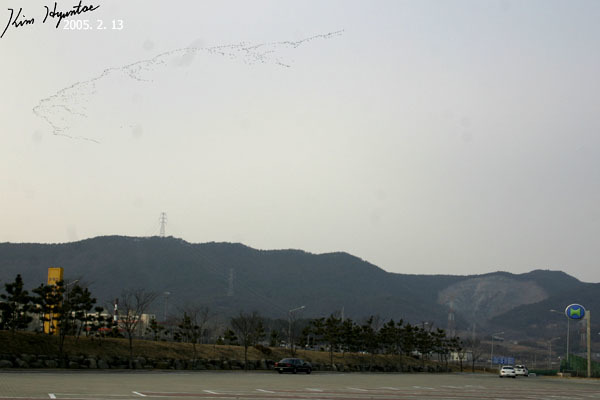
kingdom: Animalia
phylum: Chordata
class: Aves
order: Anseriformes
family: Anatidae
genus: Sibirionetta
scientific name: Sibirionetta formosa
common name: Baikal teal
